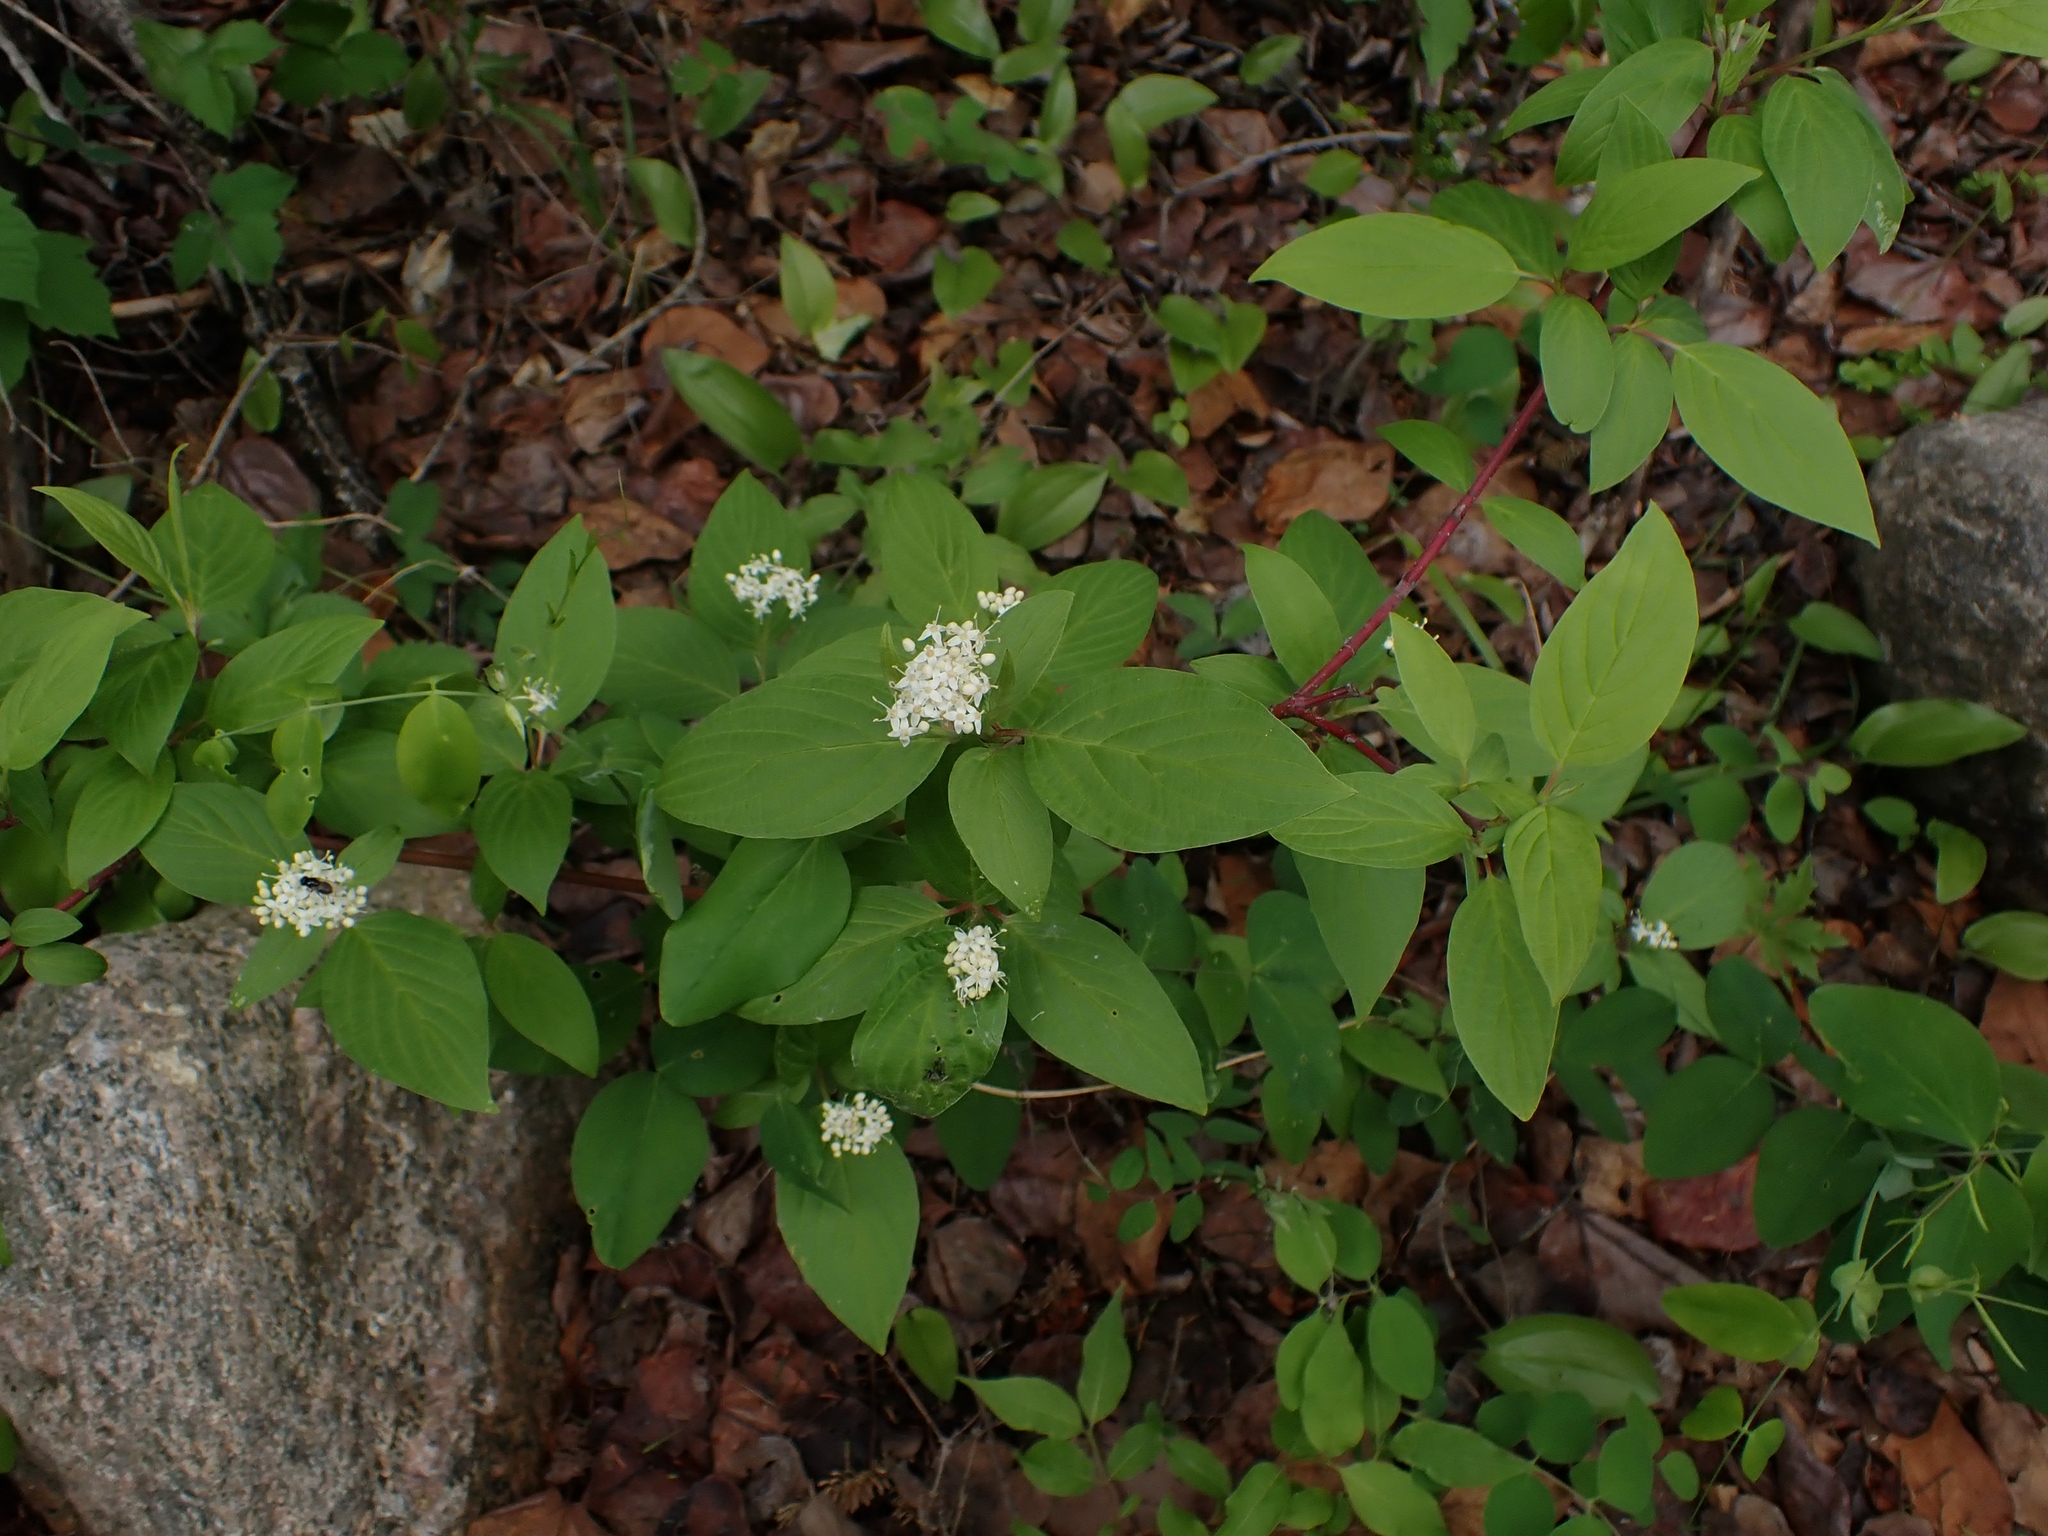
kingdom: Plantae
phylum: Tracheophyta
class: Magnoliopsida
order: Cornales
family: Cornaceae
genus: Cornus
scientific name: Cornus sericea
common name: Red-osier dogwood
